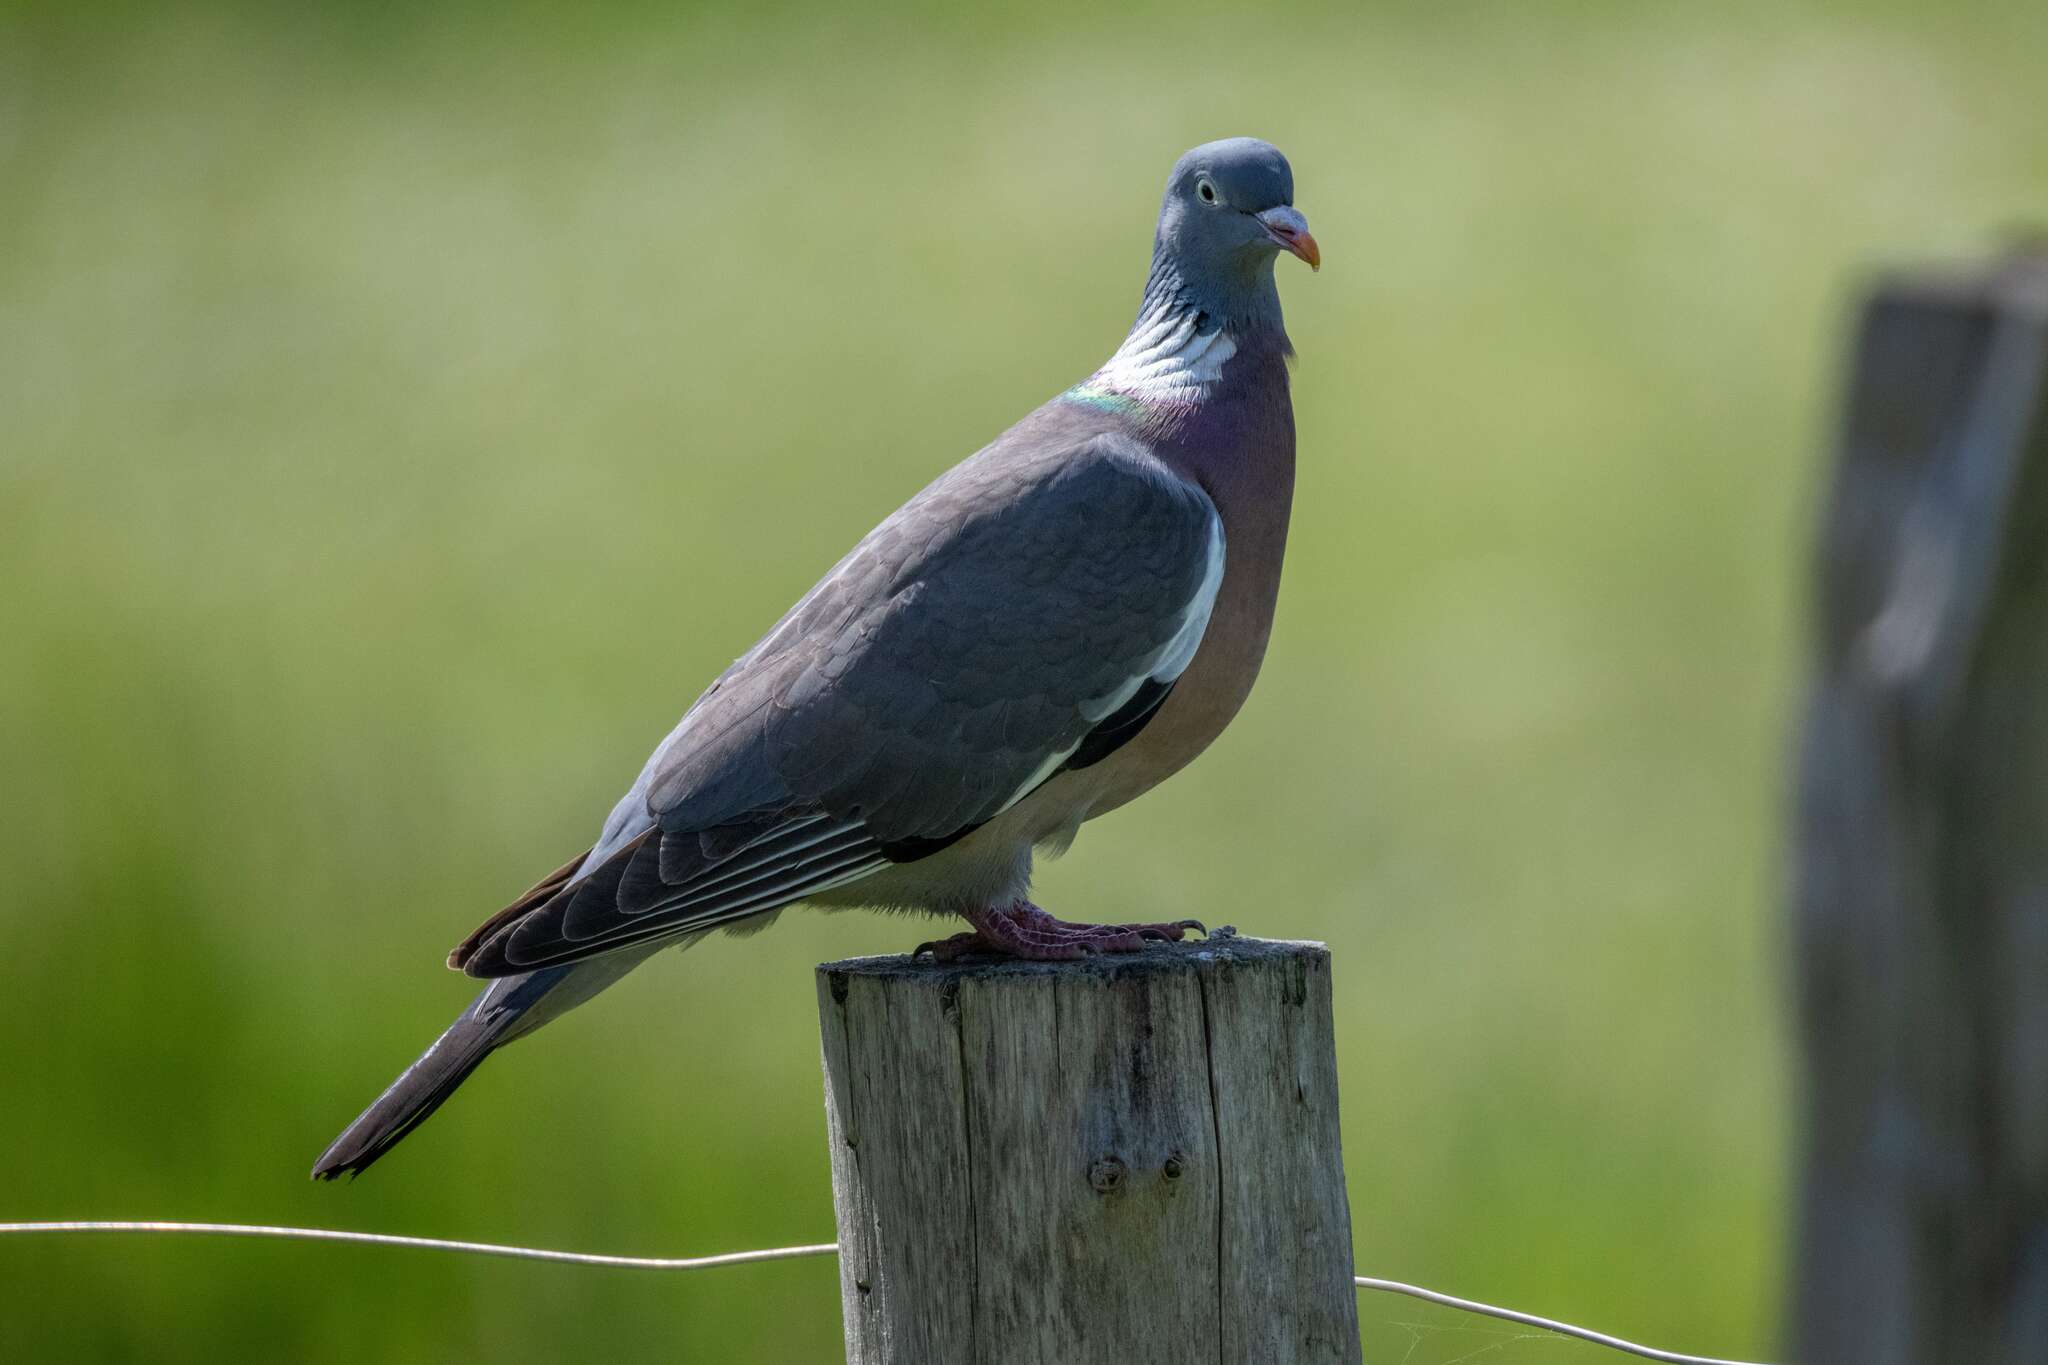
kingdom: Animalia
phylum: Chordata
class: Aves
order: Columbiformes
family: Columbidae
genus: Columba
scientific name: Columba palumbus
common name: Common wood pigeon
